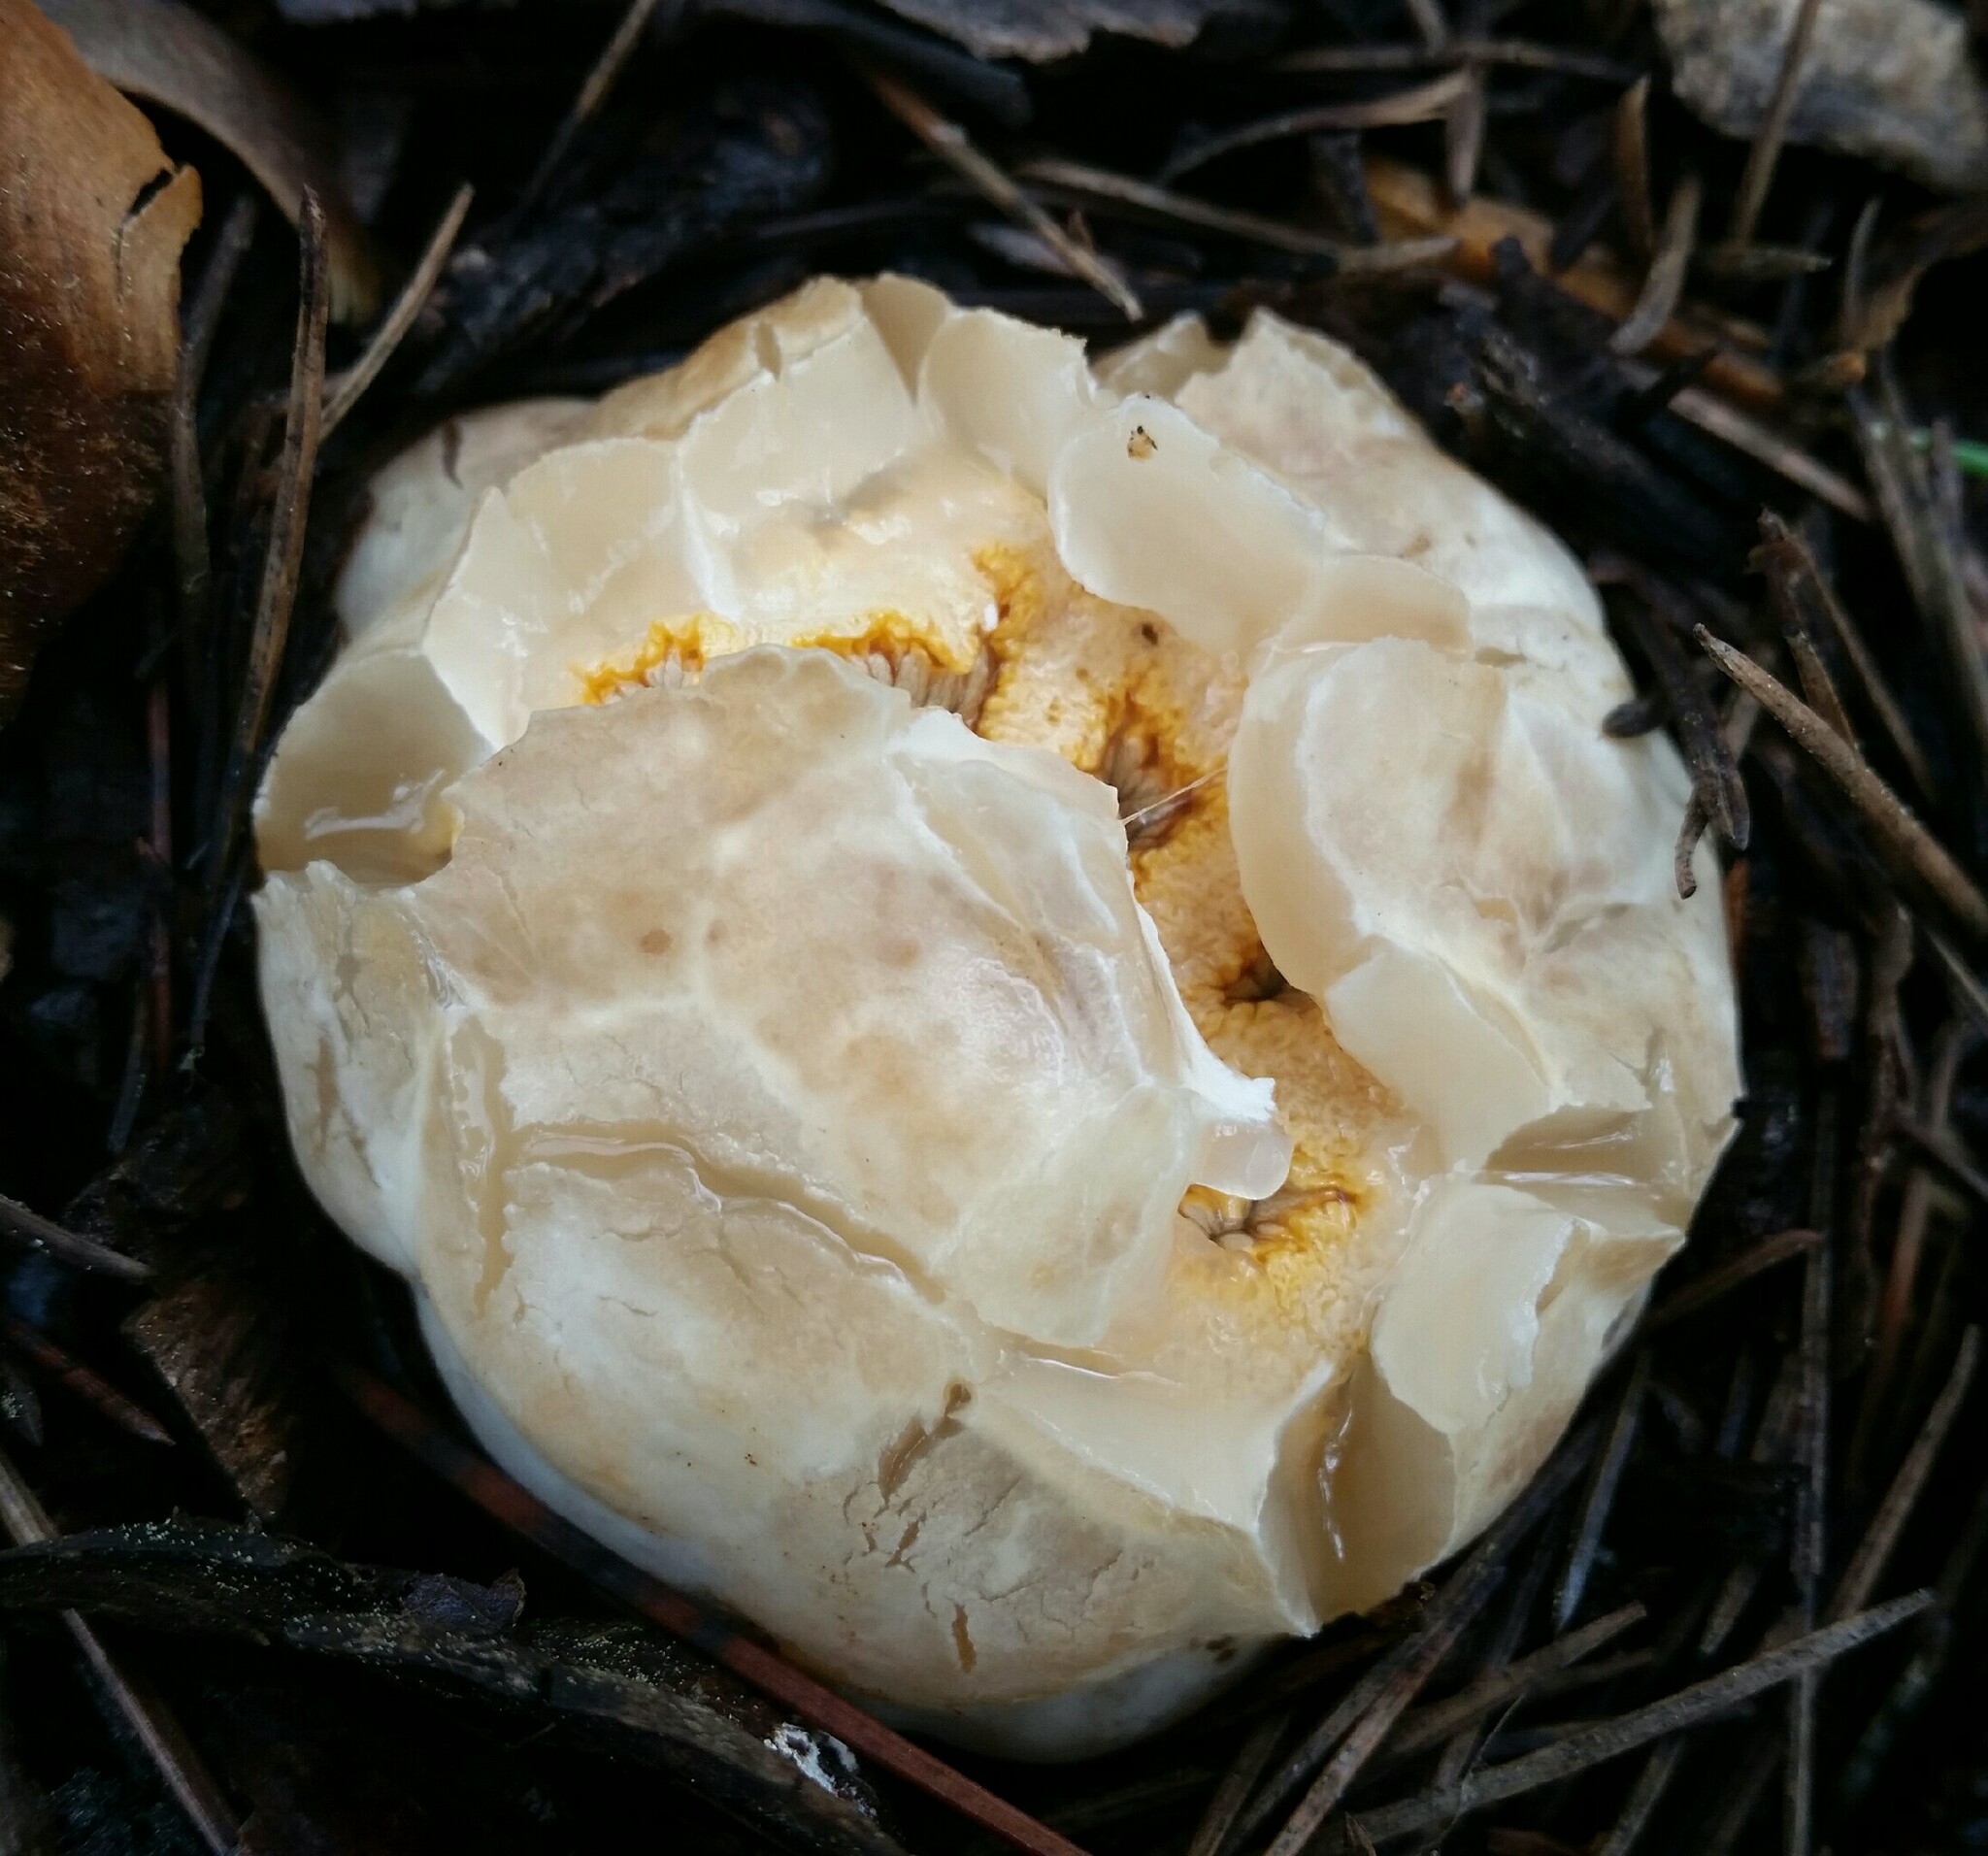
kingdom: Fungi
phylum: Basidiomycota
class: Agaricomycetes
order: Phallales
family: Phallaceae
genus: Clathrus
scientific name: Clathrus ruber
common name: Red cage
